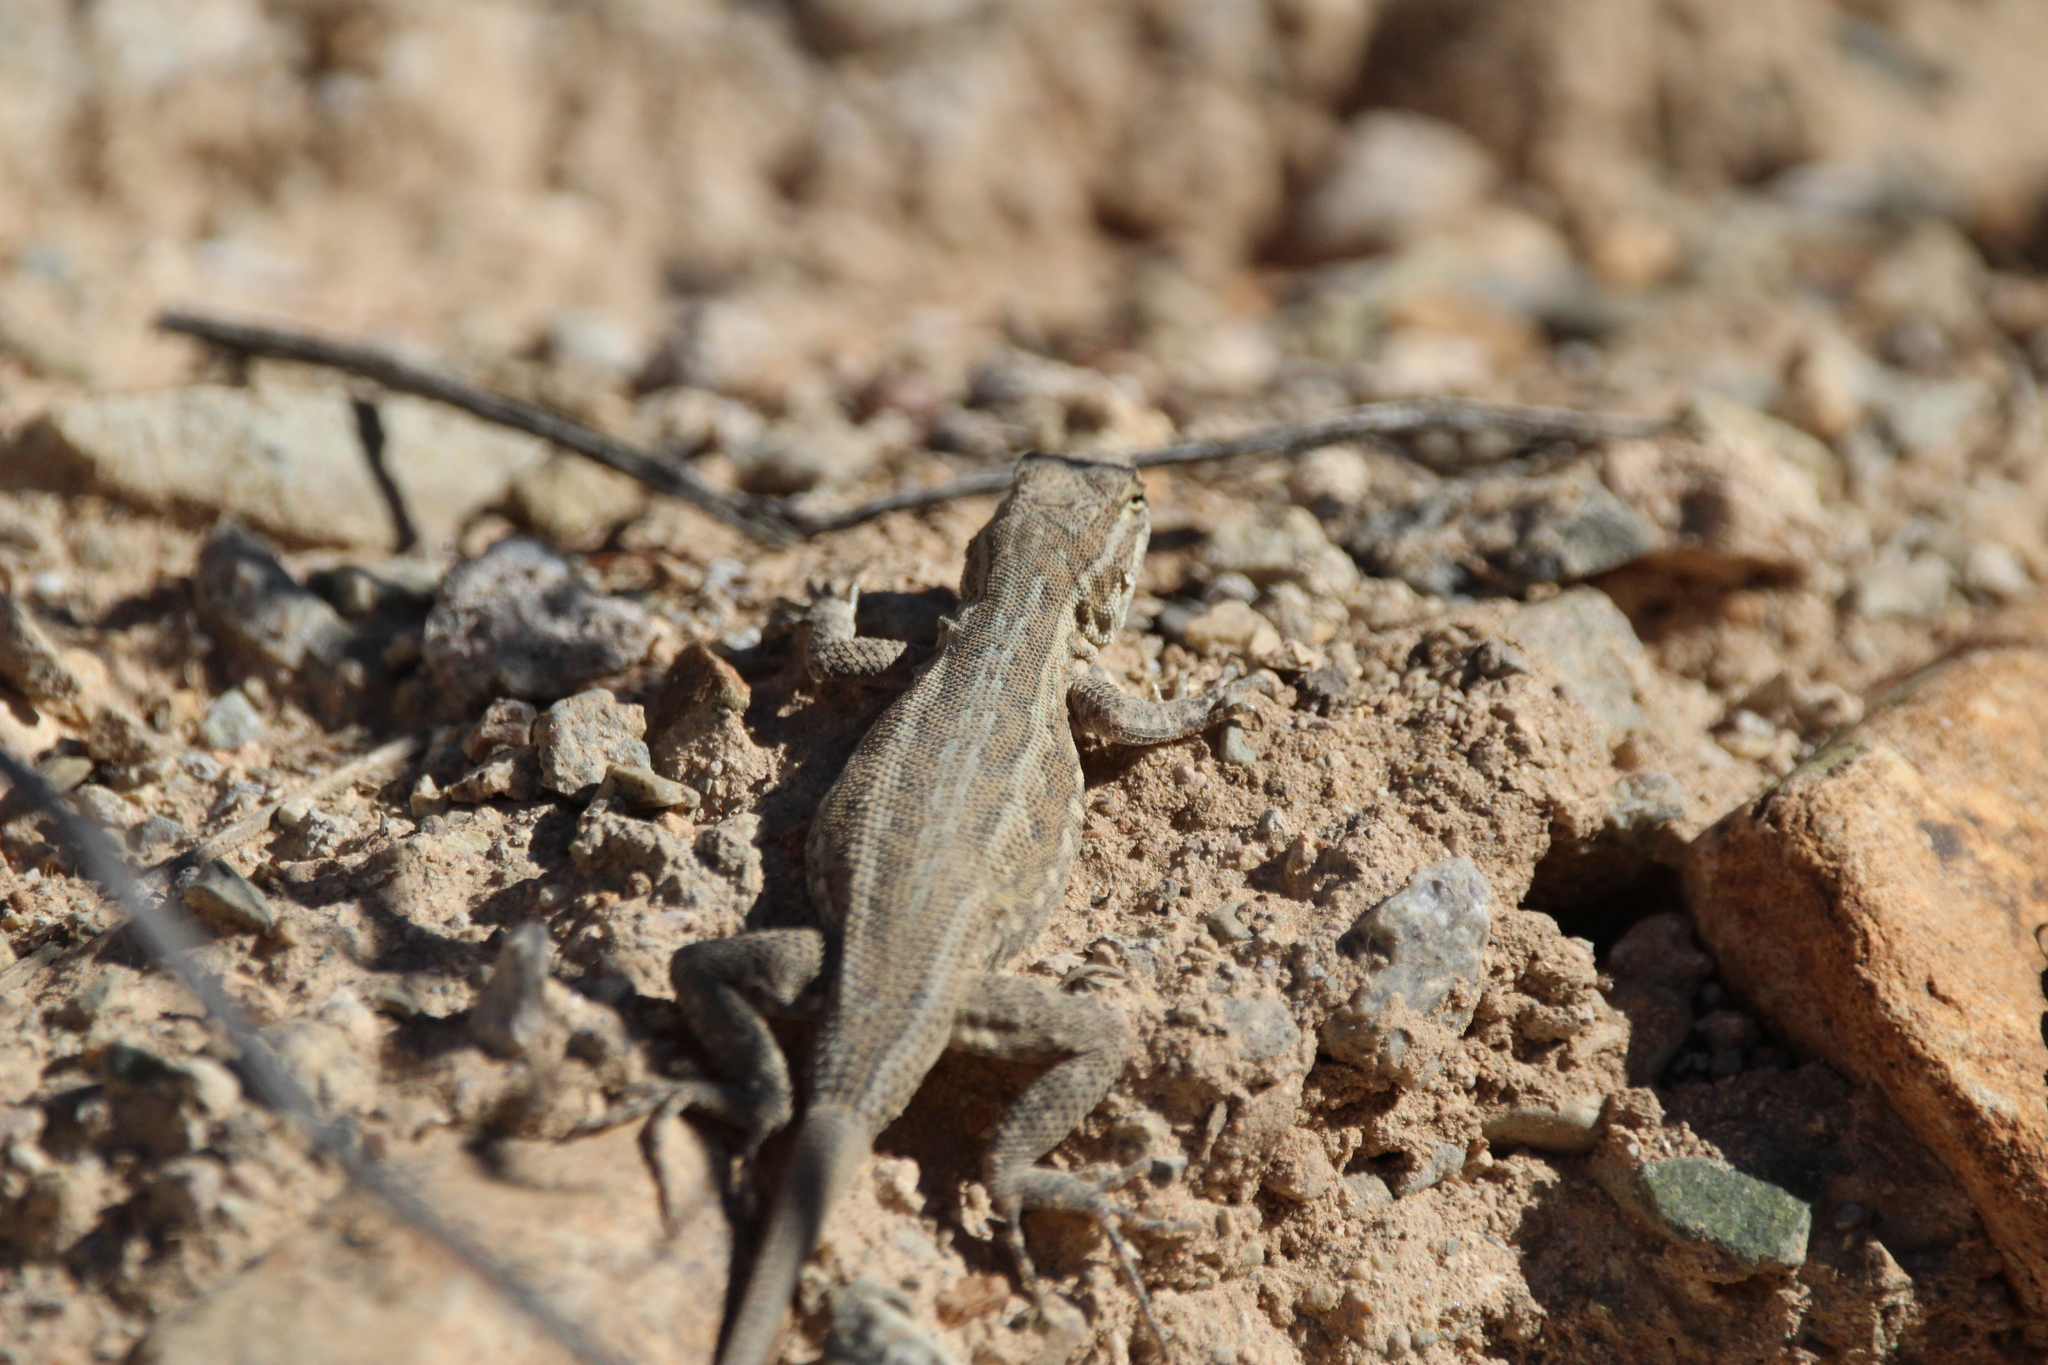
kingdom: Animalia
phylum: Chordata
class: Squamata
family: Phrynosomatidae
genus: Uta
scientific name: Uta stansburiana
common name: Side-blotched lizard
